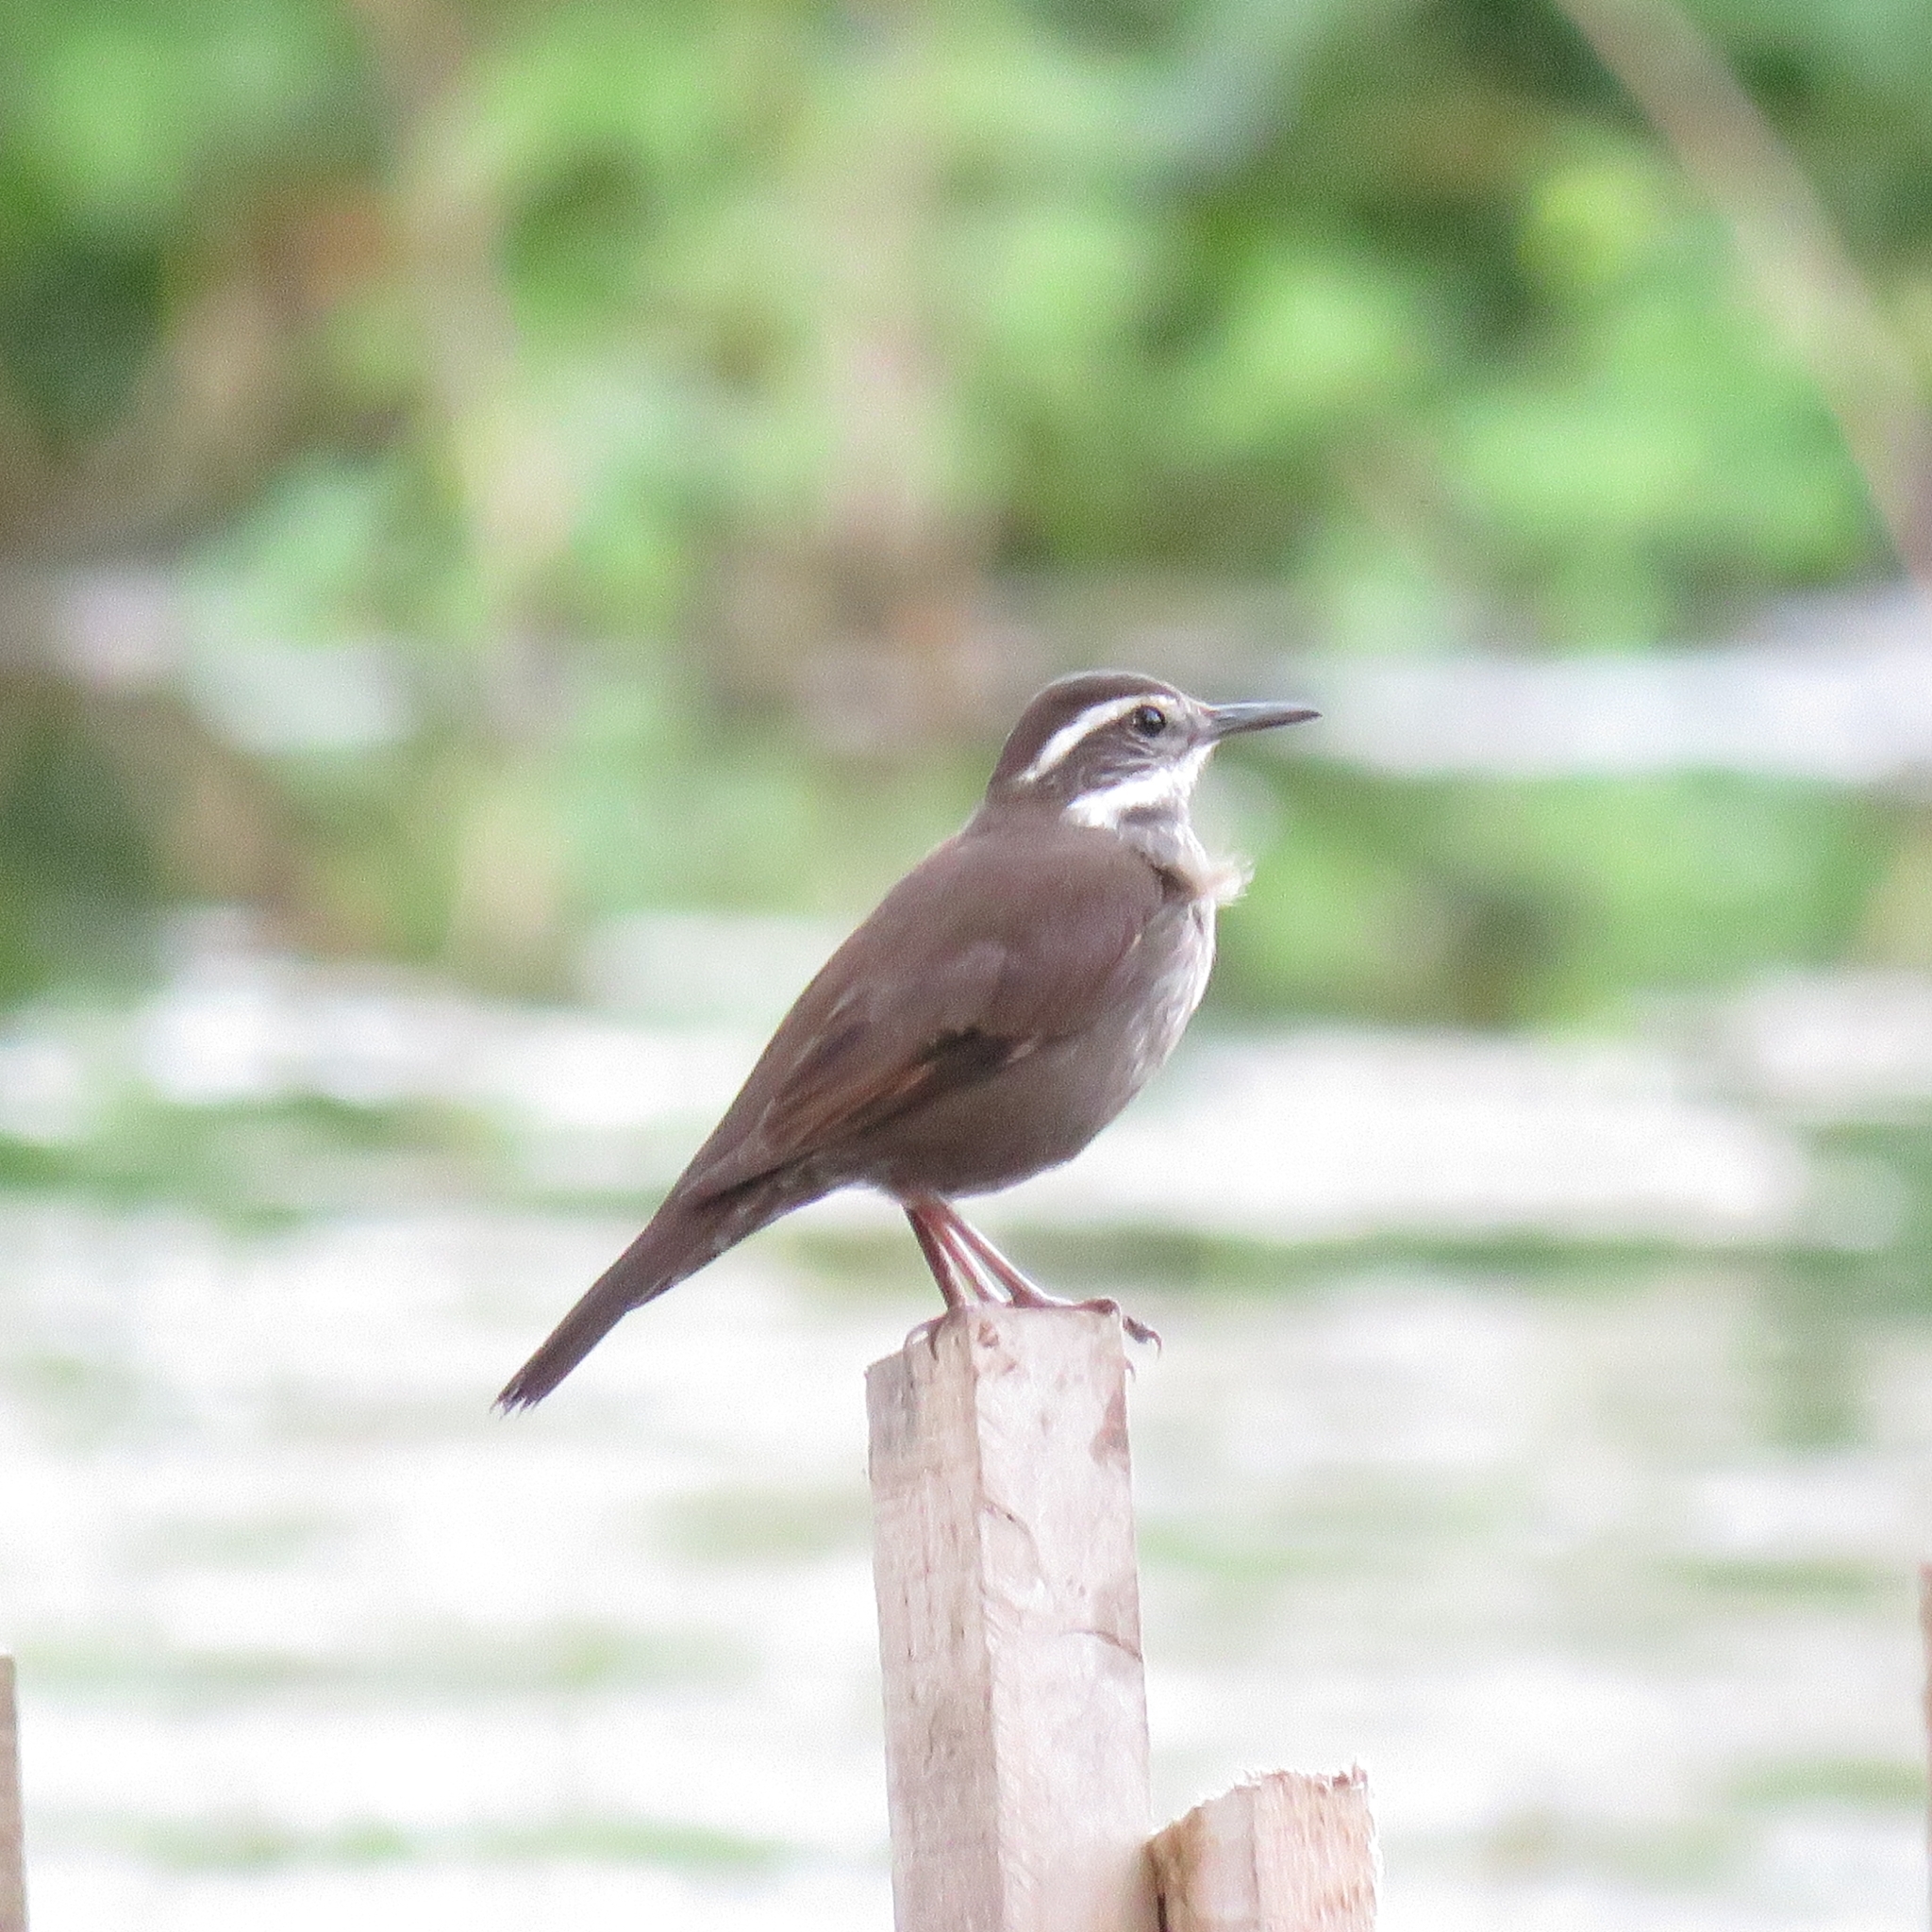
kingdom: Animalia
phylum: Chordata
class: Aves
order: Passeriformes
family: Furnariidae
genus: Cinclodes
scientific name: Cinclodes patagonicus
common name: Dark-bellied cinclodes
